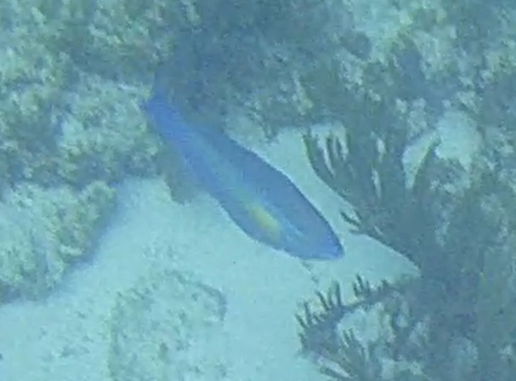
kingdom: Animalia
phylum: Chordata
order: Perciformes
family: Scaridae
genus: Scarus
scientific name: Scarus
